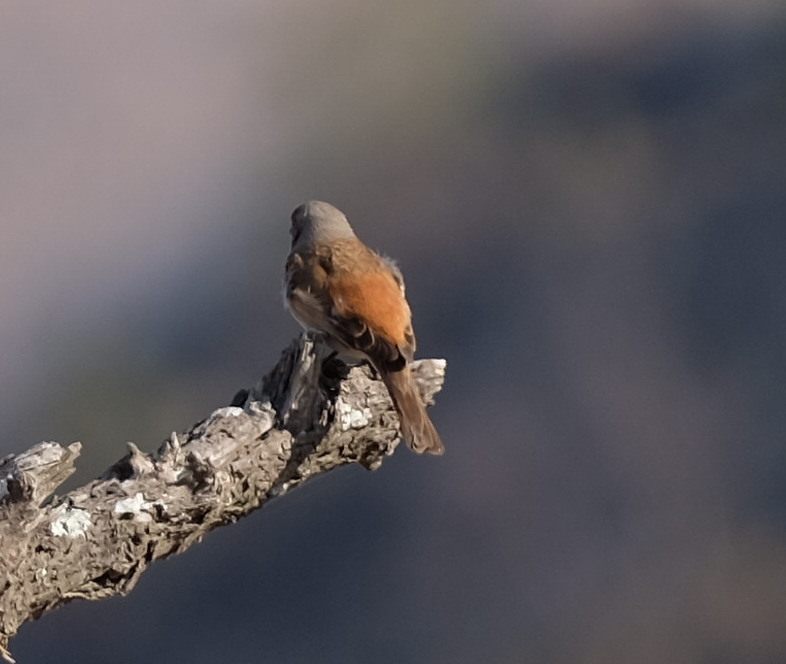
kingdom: Animalia
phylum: Chordata
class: Aves
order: Passeriformes
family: Passeridae
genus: Passer
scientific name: Passer diffusus
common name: Southern grey-headed sparrow
